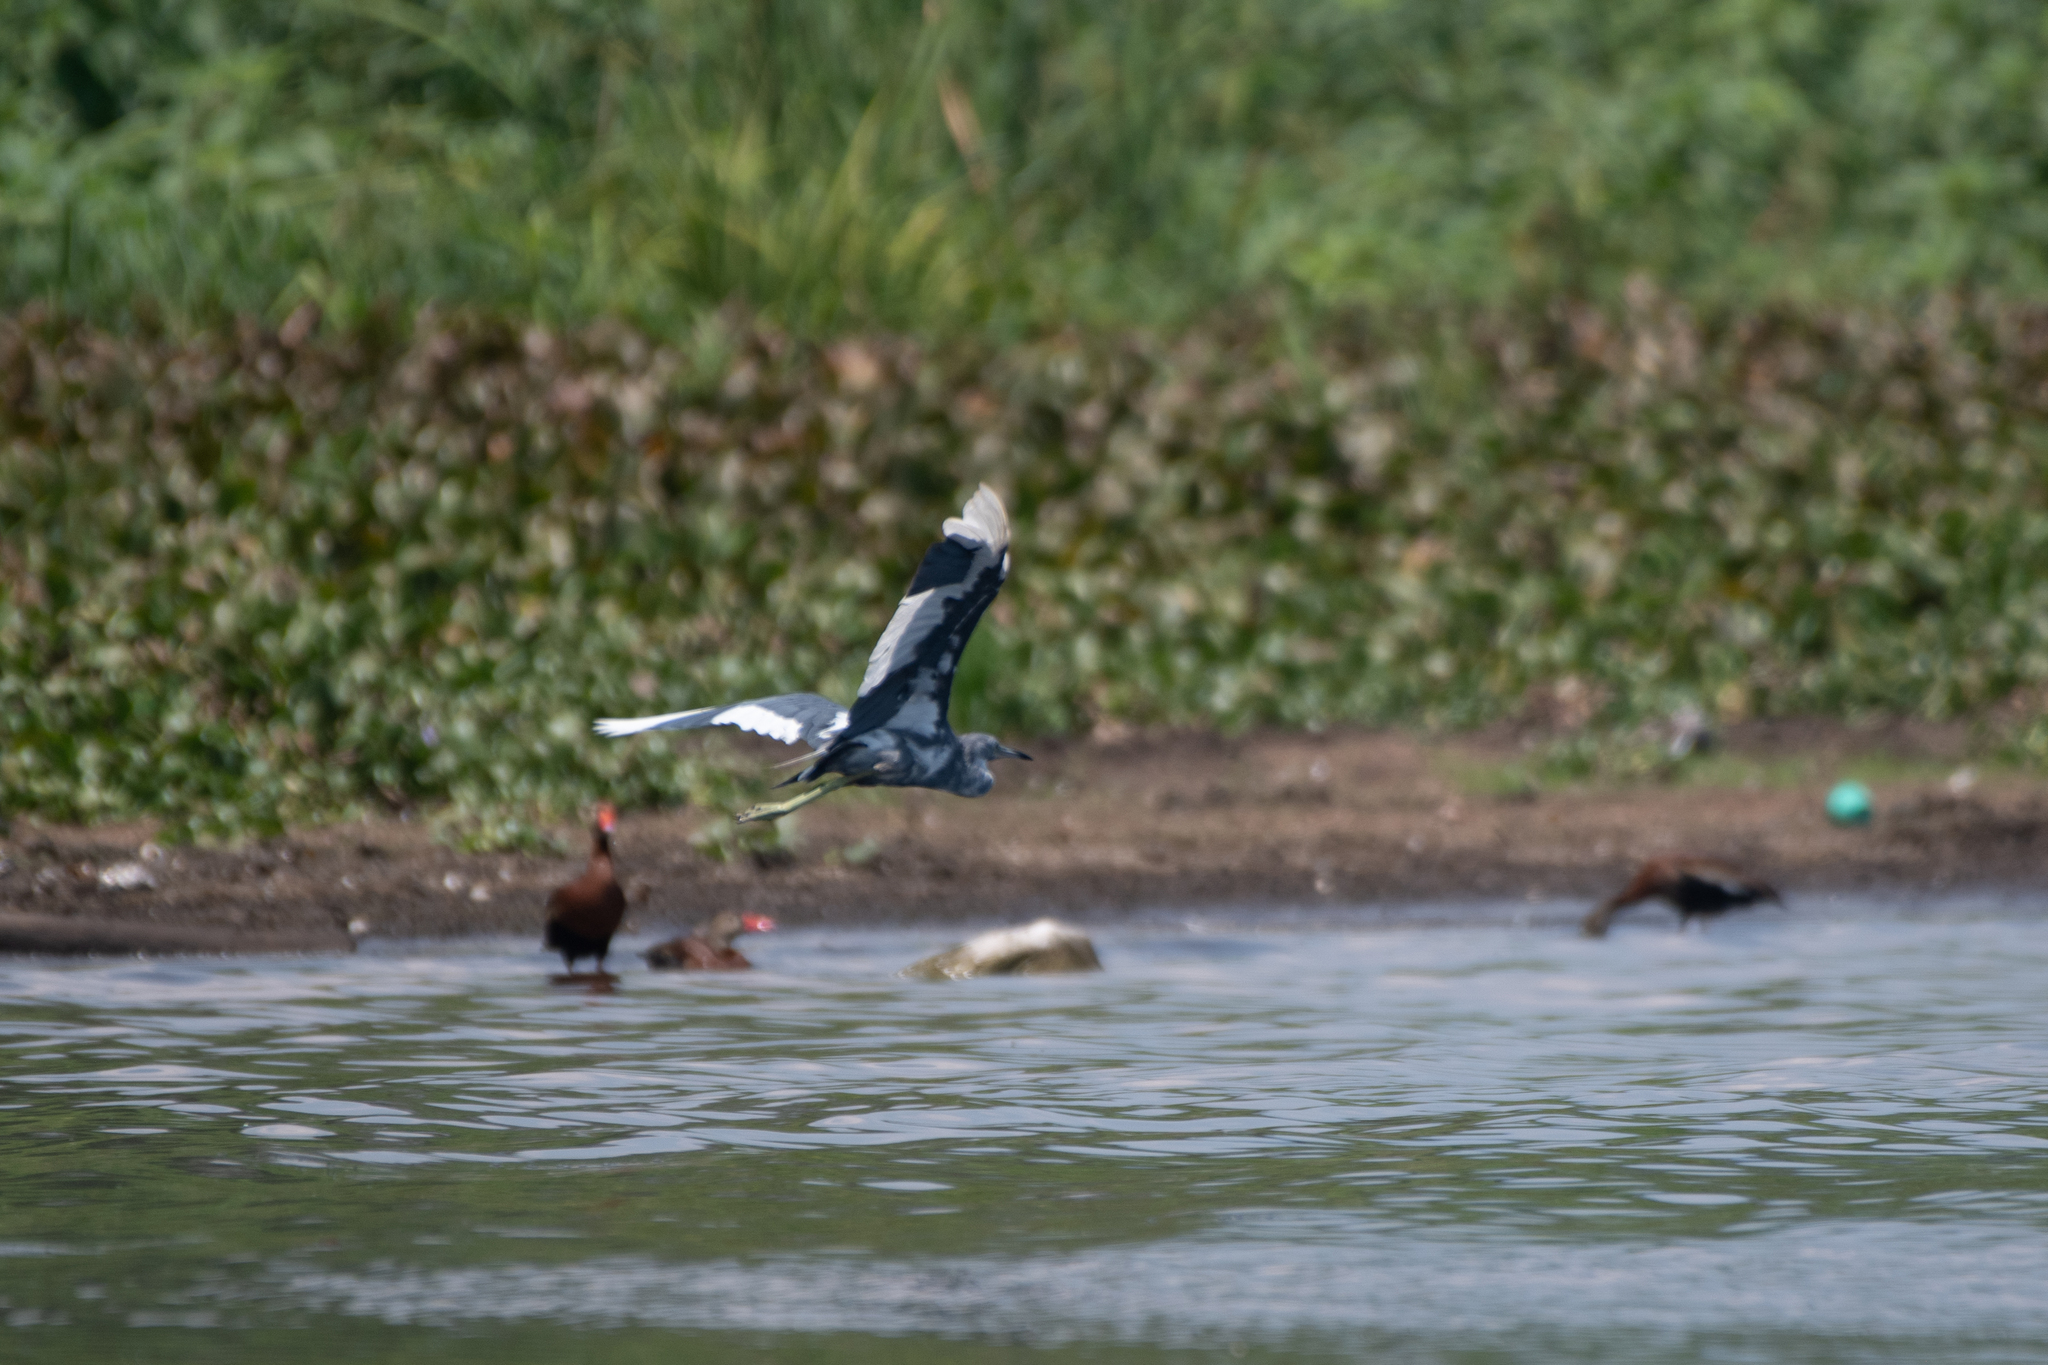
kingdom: Animalia
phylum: Chordata
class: Aves
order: Pelecaniformes
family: Ardeidae
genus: Egretta
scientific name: Egretta caerulea
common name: Little blue heron
